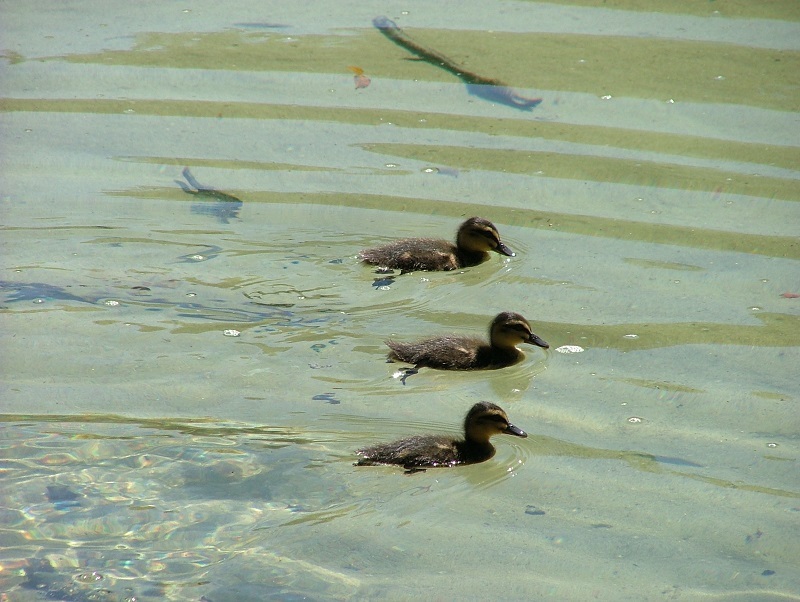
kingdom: Animalia
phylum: Chordata
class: Aves
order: Anseriformes
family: Anatidae
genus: Anas
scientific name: Anas
